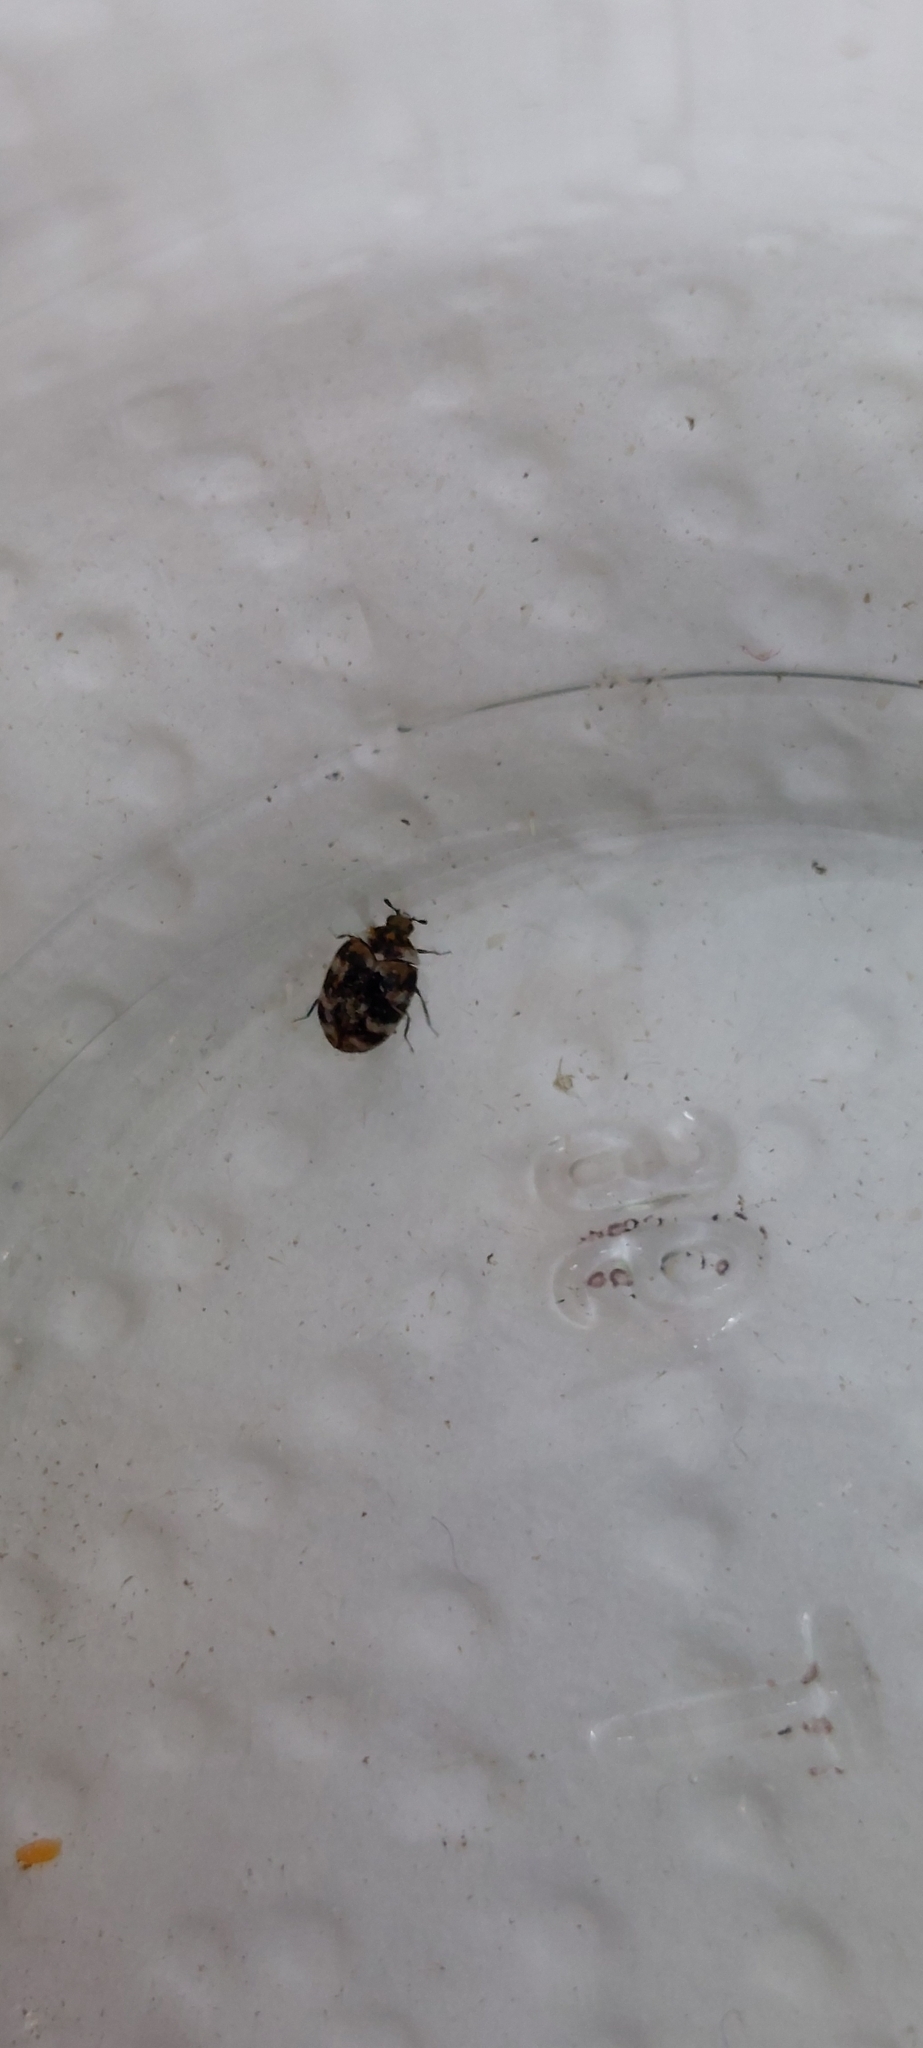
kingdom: Animalia
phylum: Arthropoda
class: Insecta
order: Coleoptera
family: Dermestidae
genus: Anthrenus
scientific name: Anthrenus verbasci
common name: Varied carpet beetle
